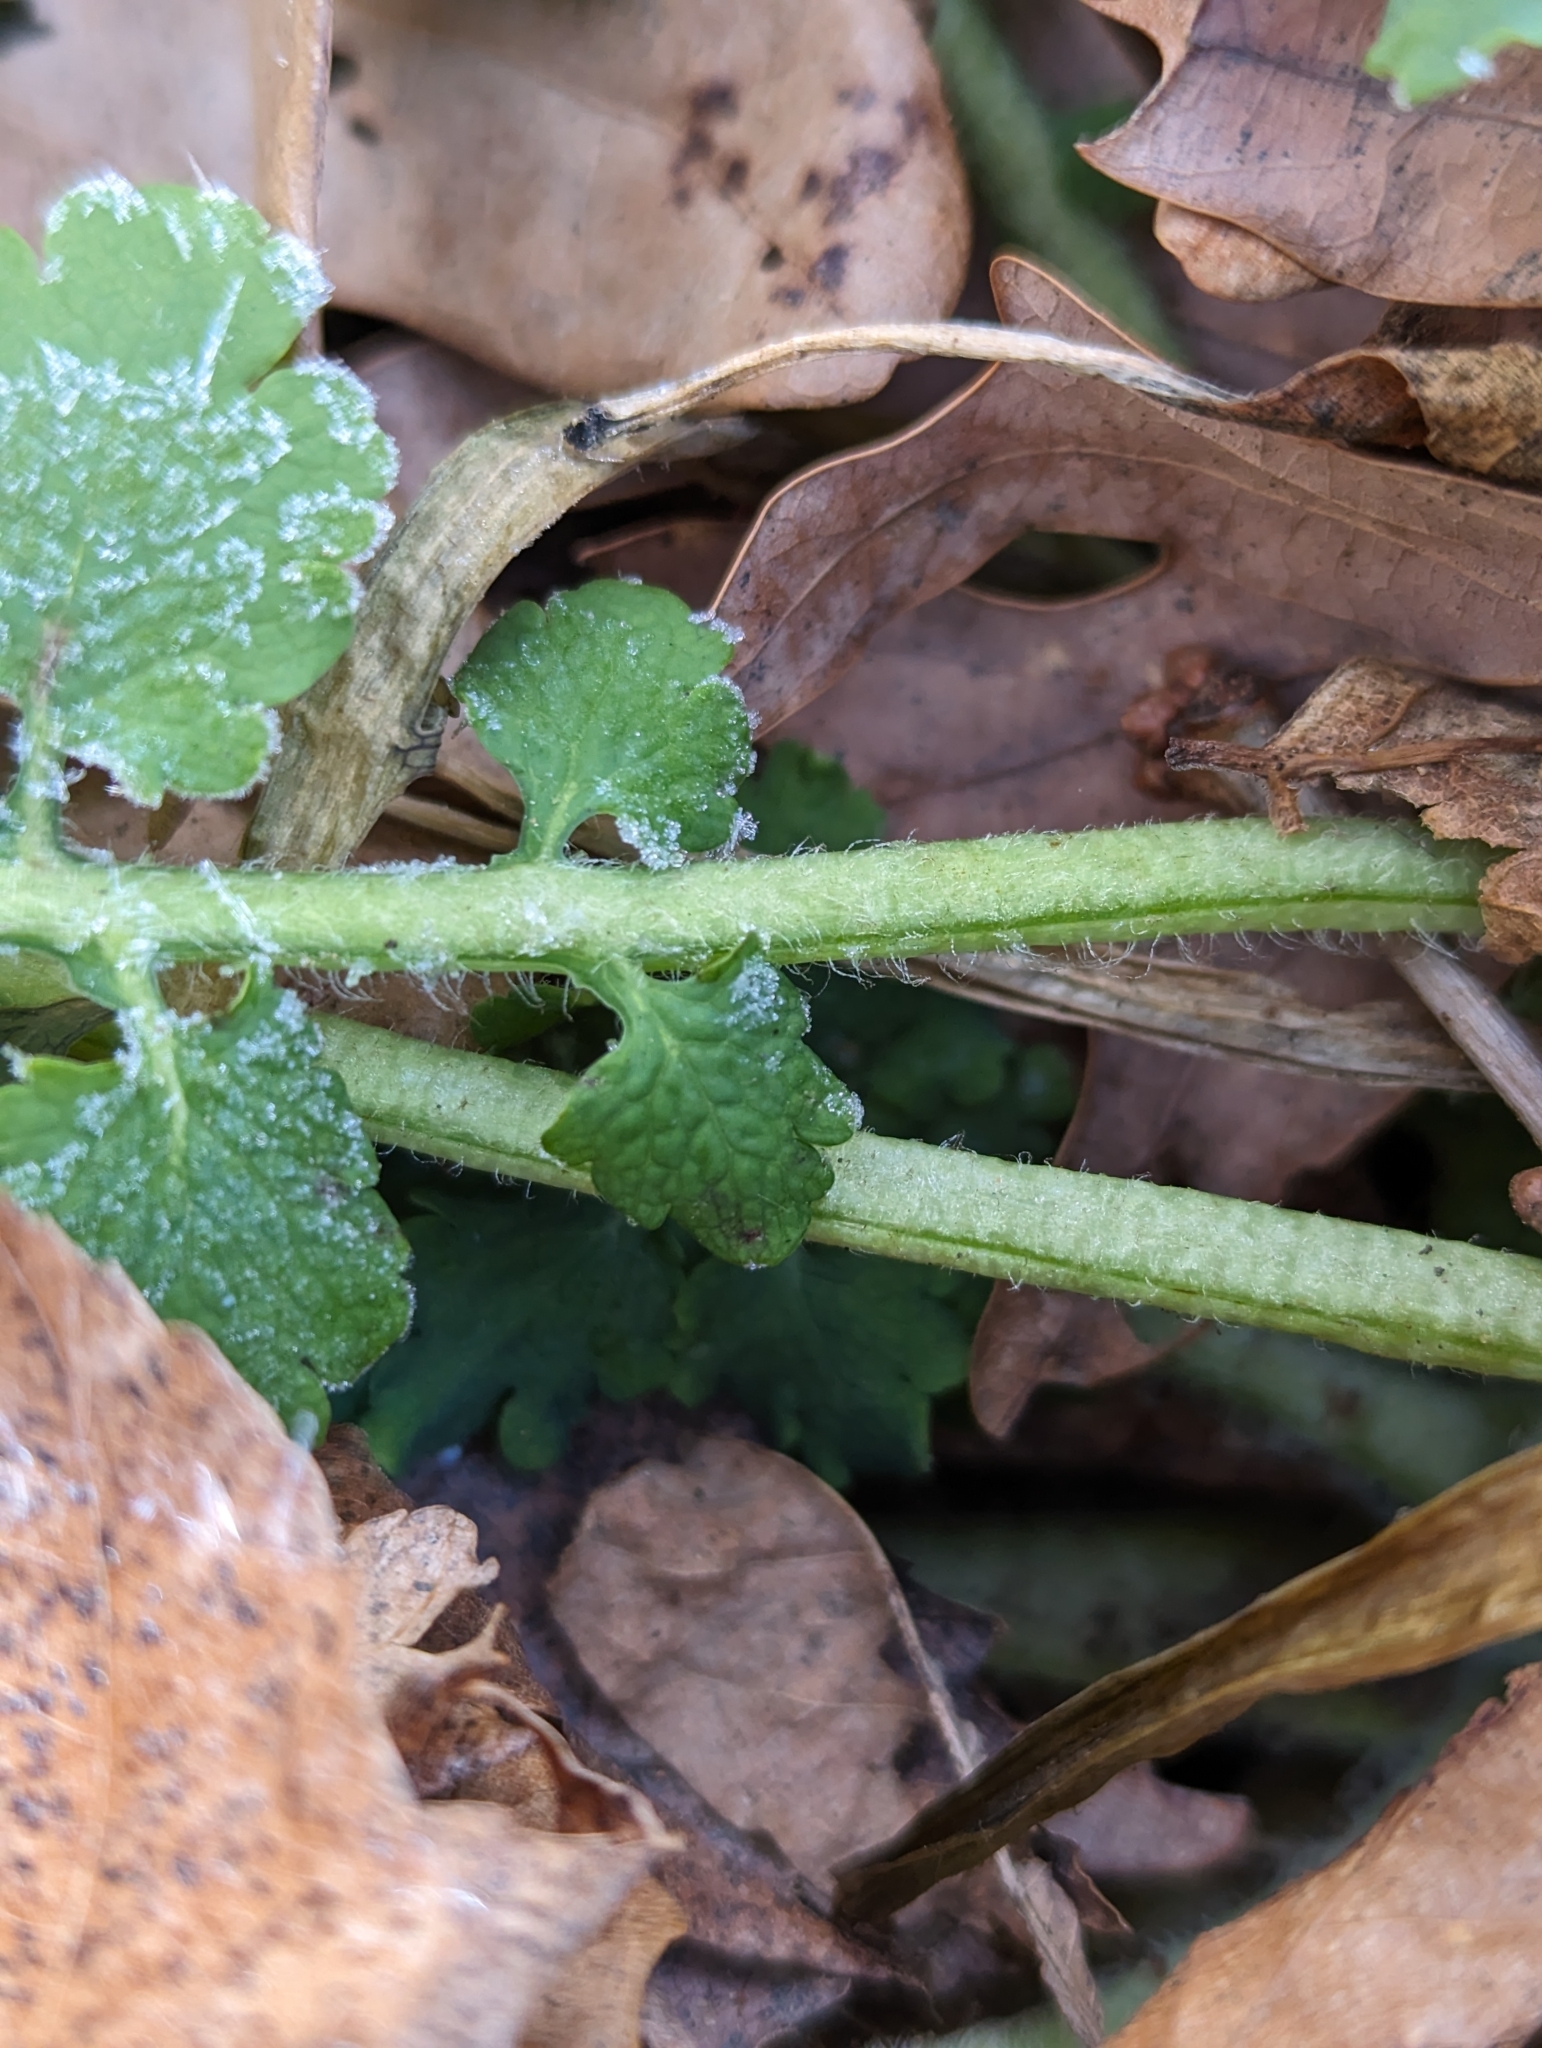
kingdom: Plantae
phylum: Tracheophyta
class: Magnoliopsida
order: Ranunculales
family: Papaveraceae
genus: Chelidonium
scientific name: Chelidonium majus
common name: Greater celandine
